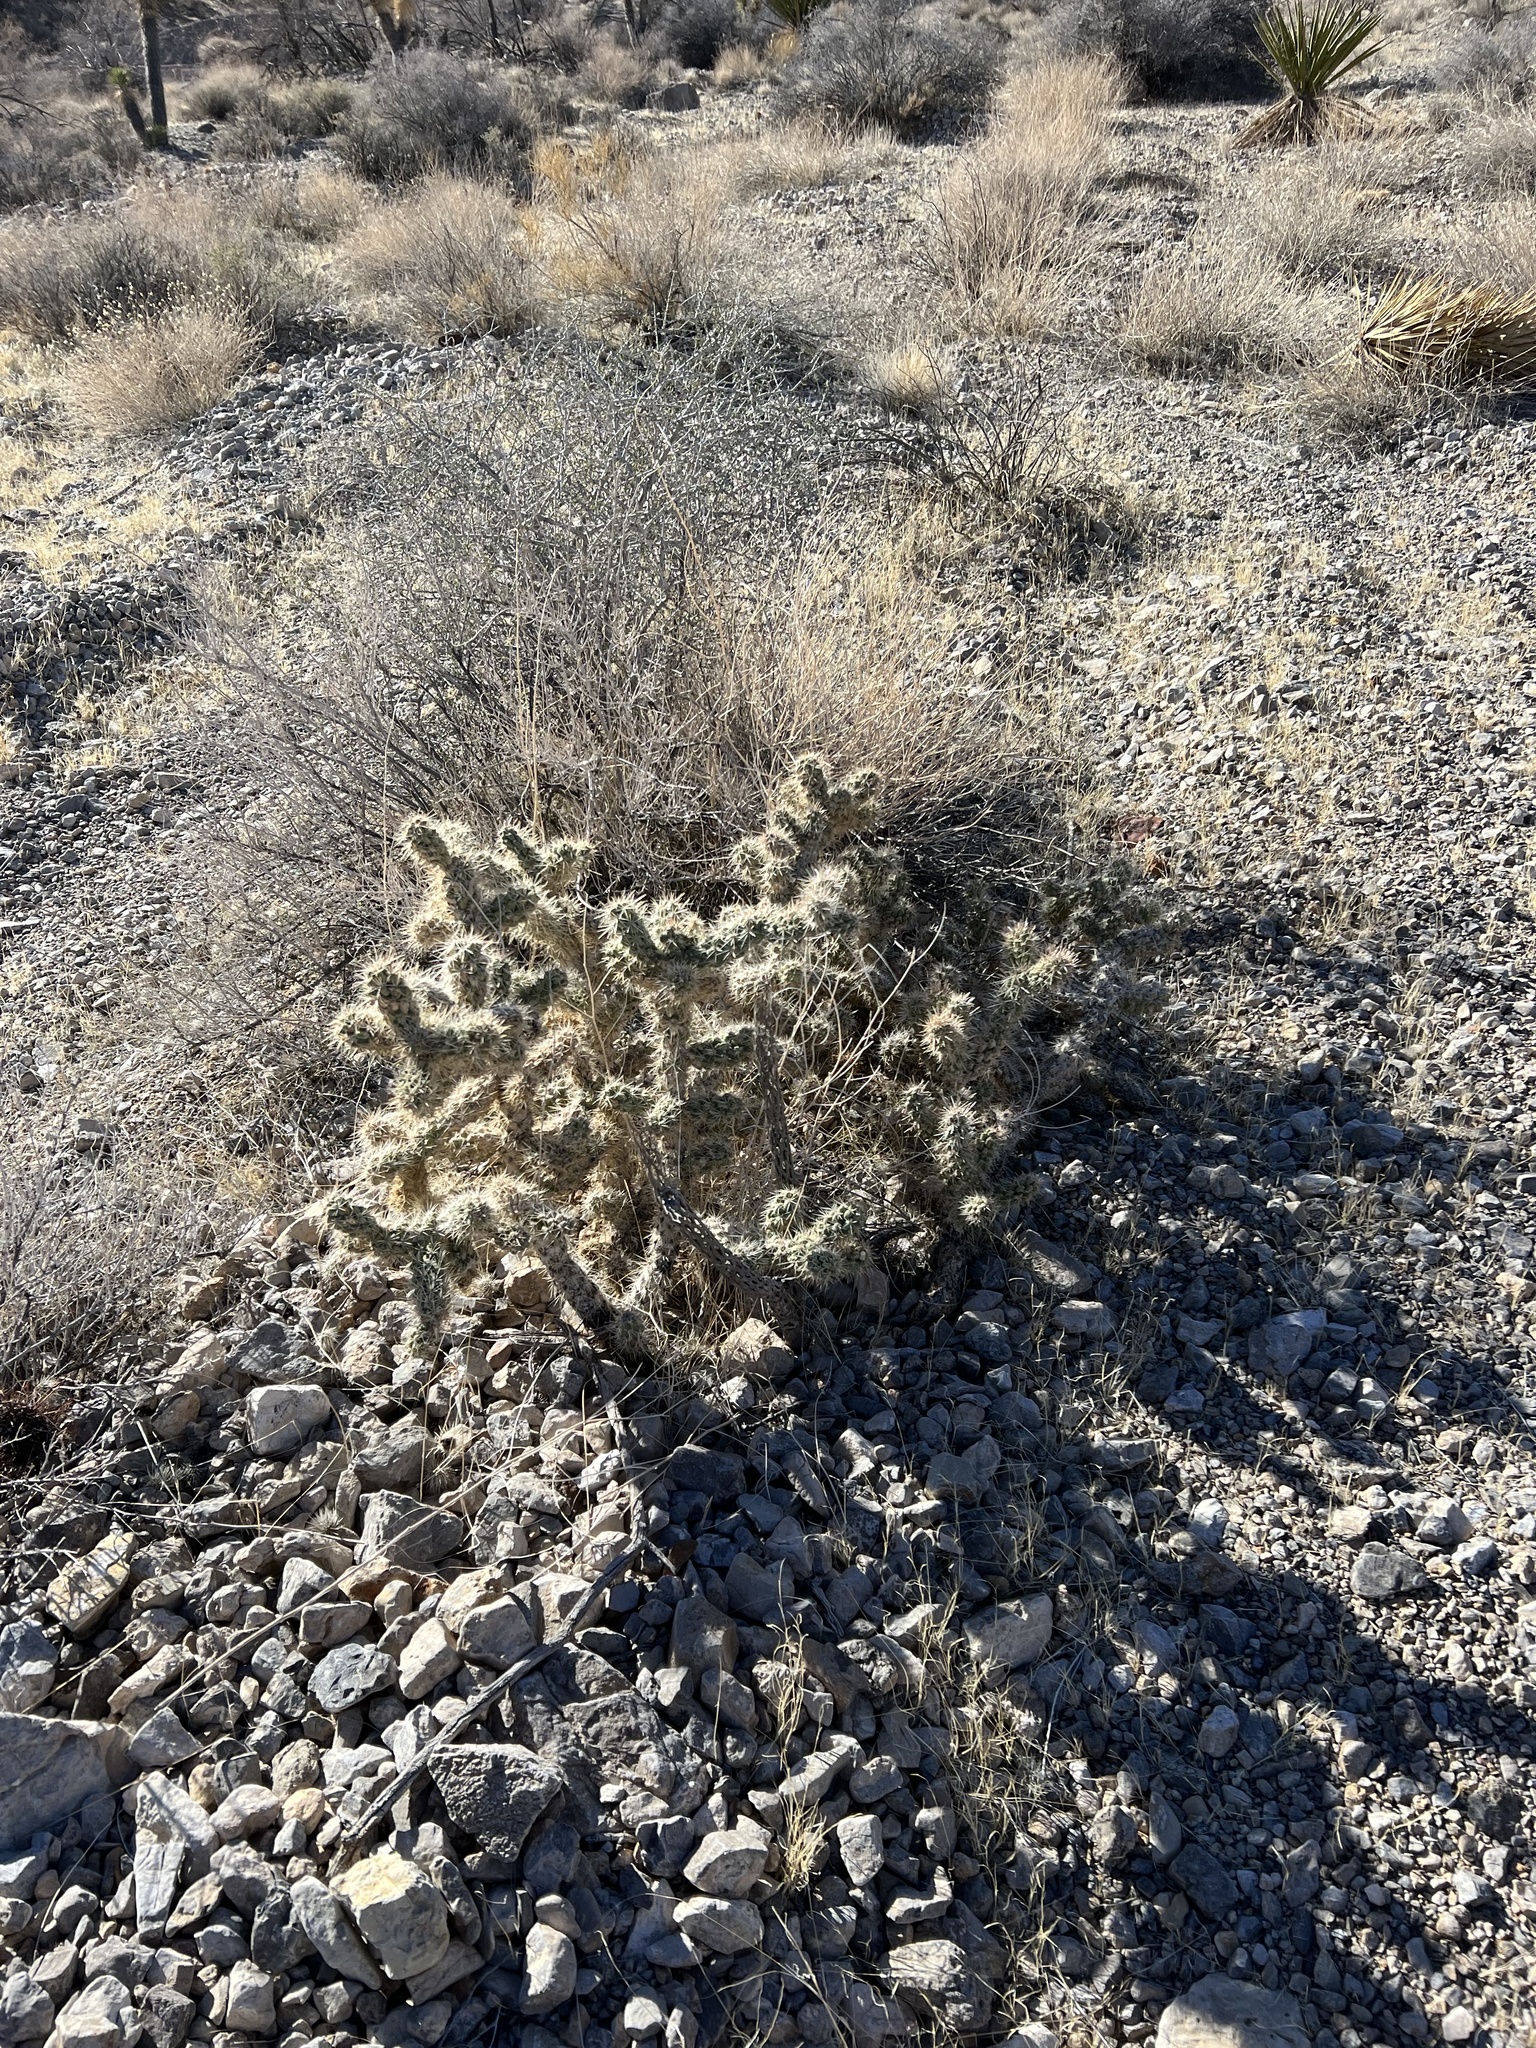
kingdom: Plantae
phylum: Tracheophyta
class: Magnoliopsida
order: Caryophyllales
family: Cactaceae
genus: Cylindropuntia
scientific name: Cylindropuntia echinocarpa
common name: Ground cholla
